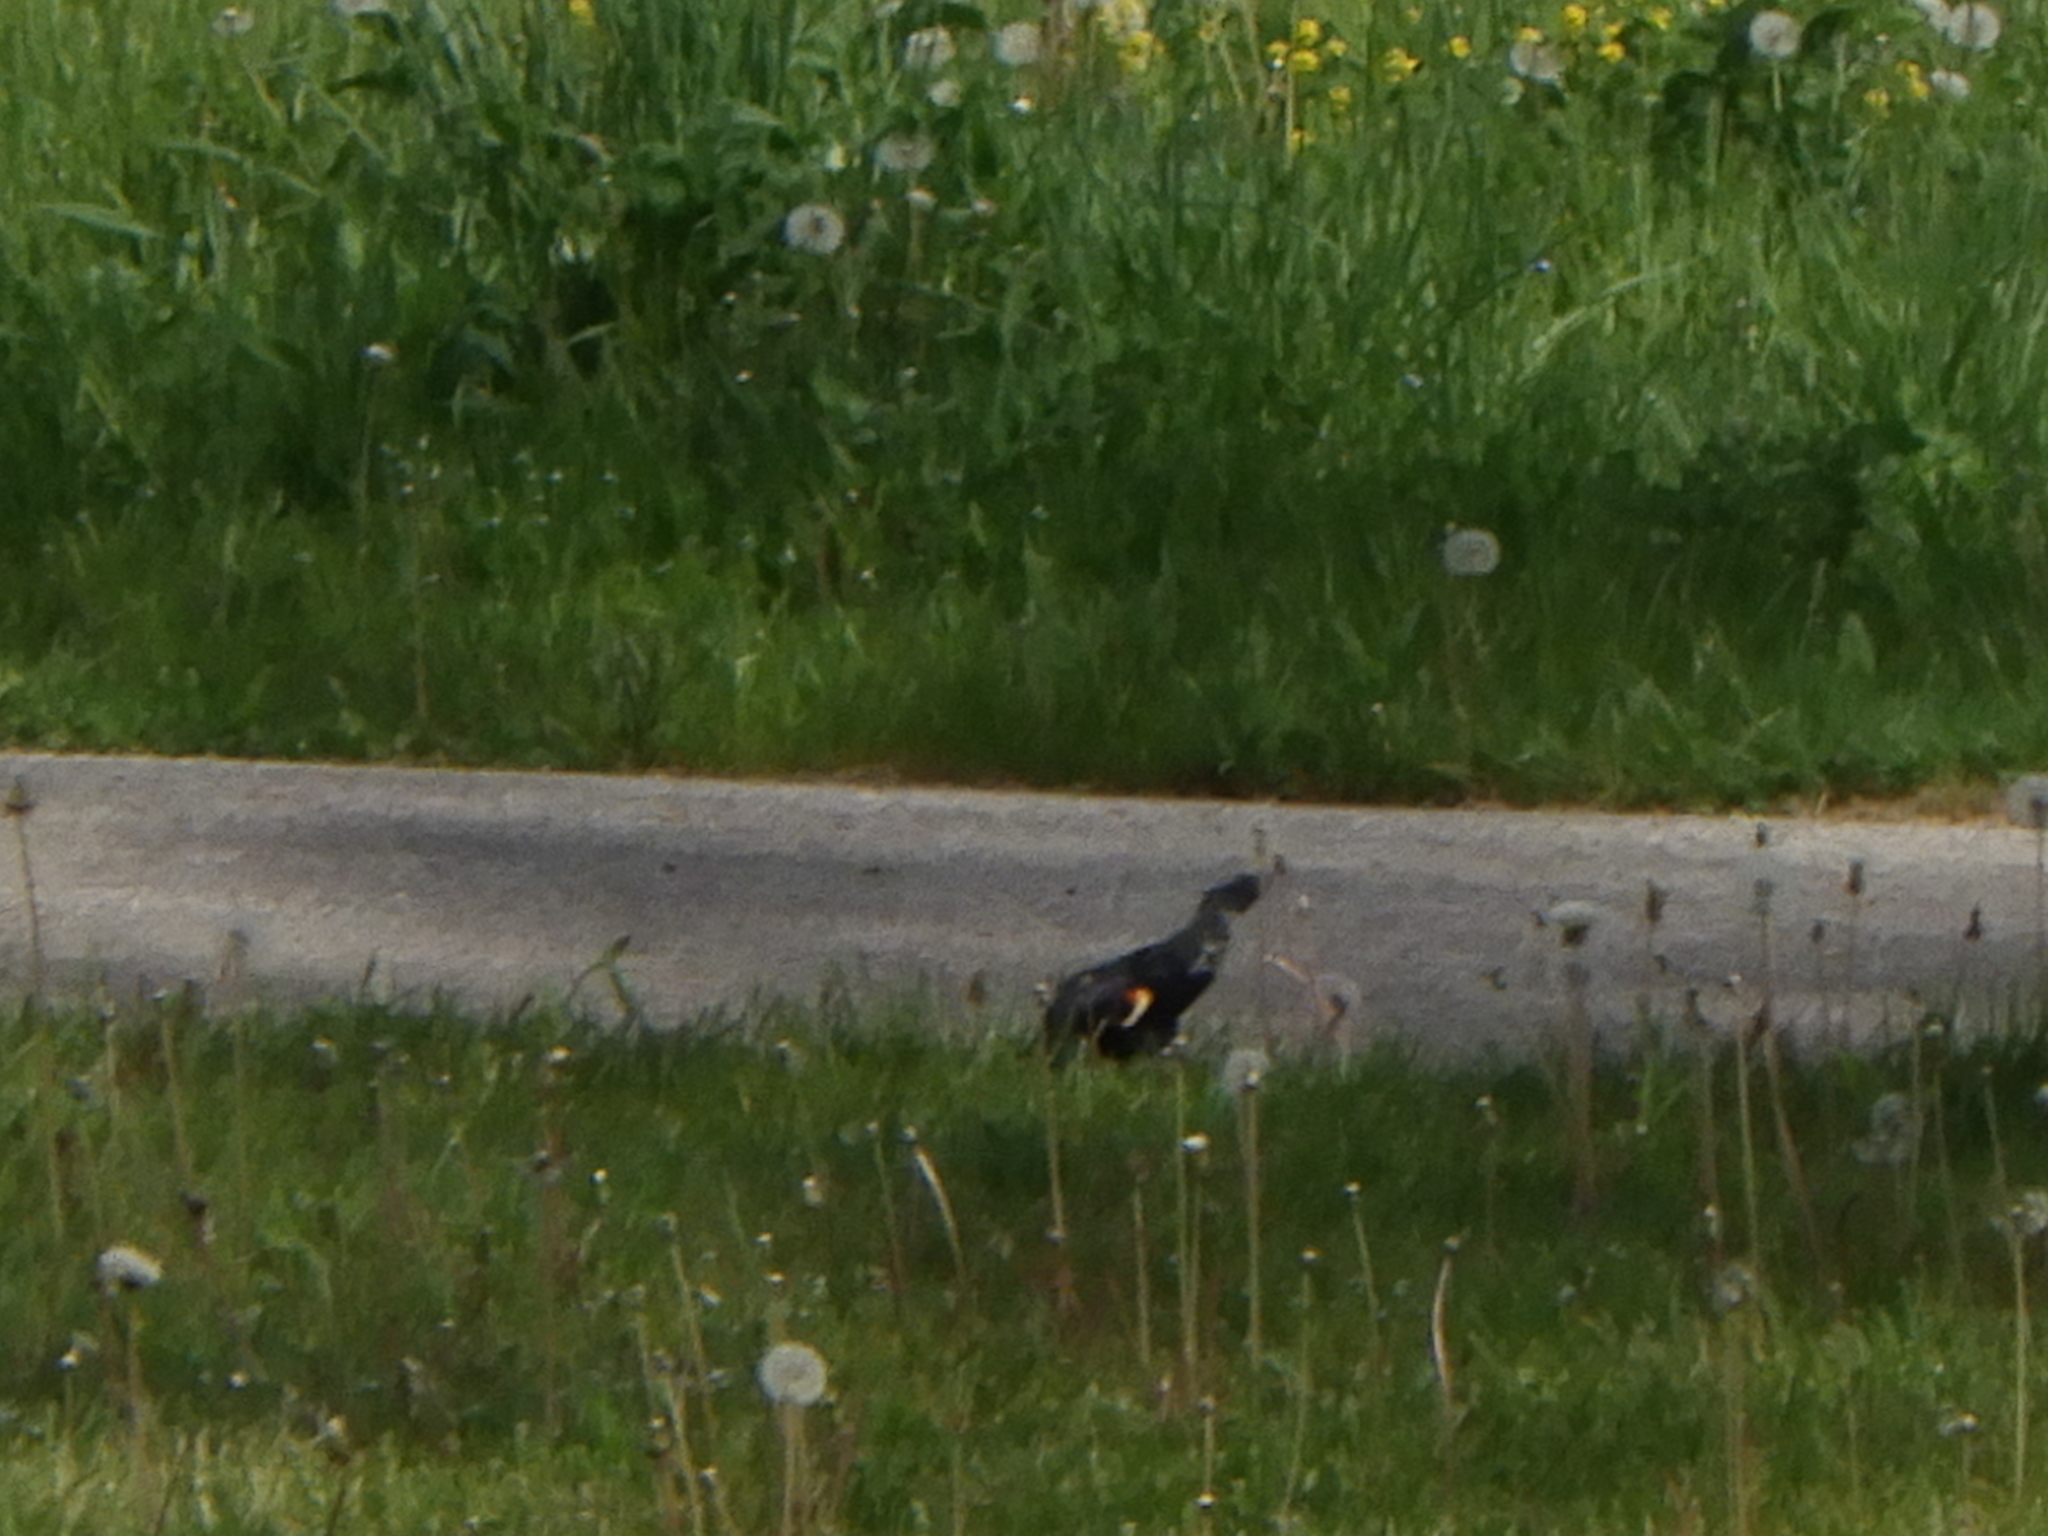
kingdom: Animalia
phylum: Chordata
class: Aves
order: Passeriformes
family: Icteridae
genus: Agelaius
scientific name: Agelaius phoeniceus
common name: Red-winged blackbird
